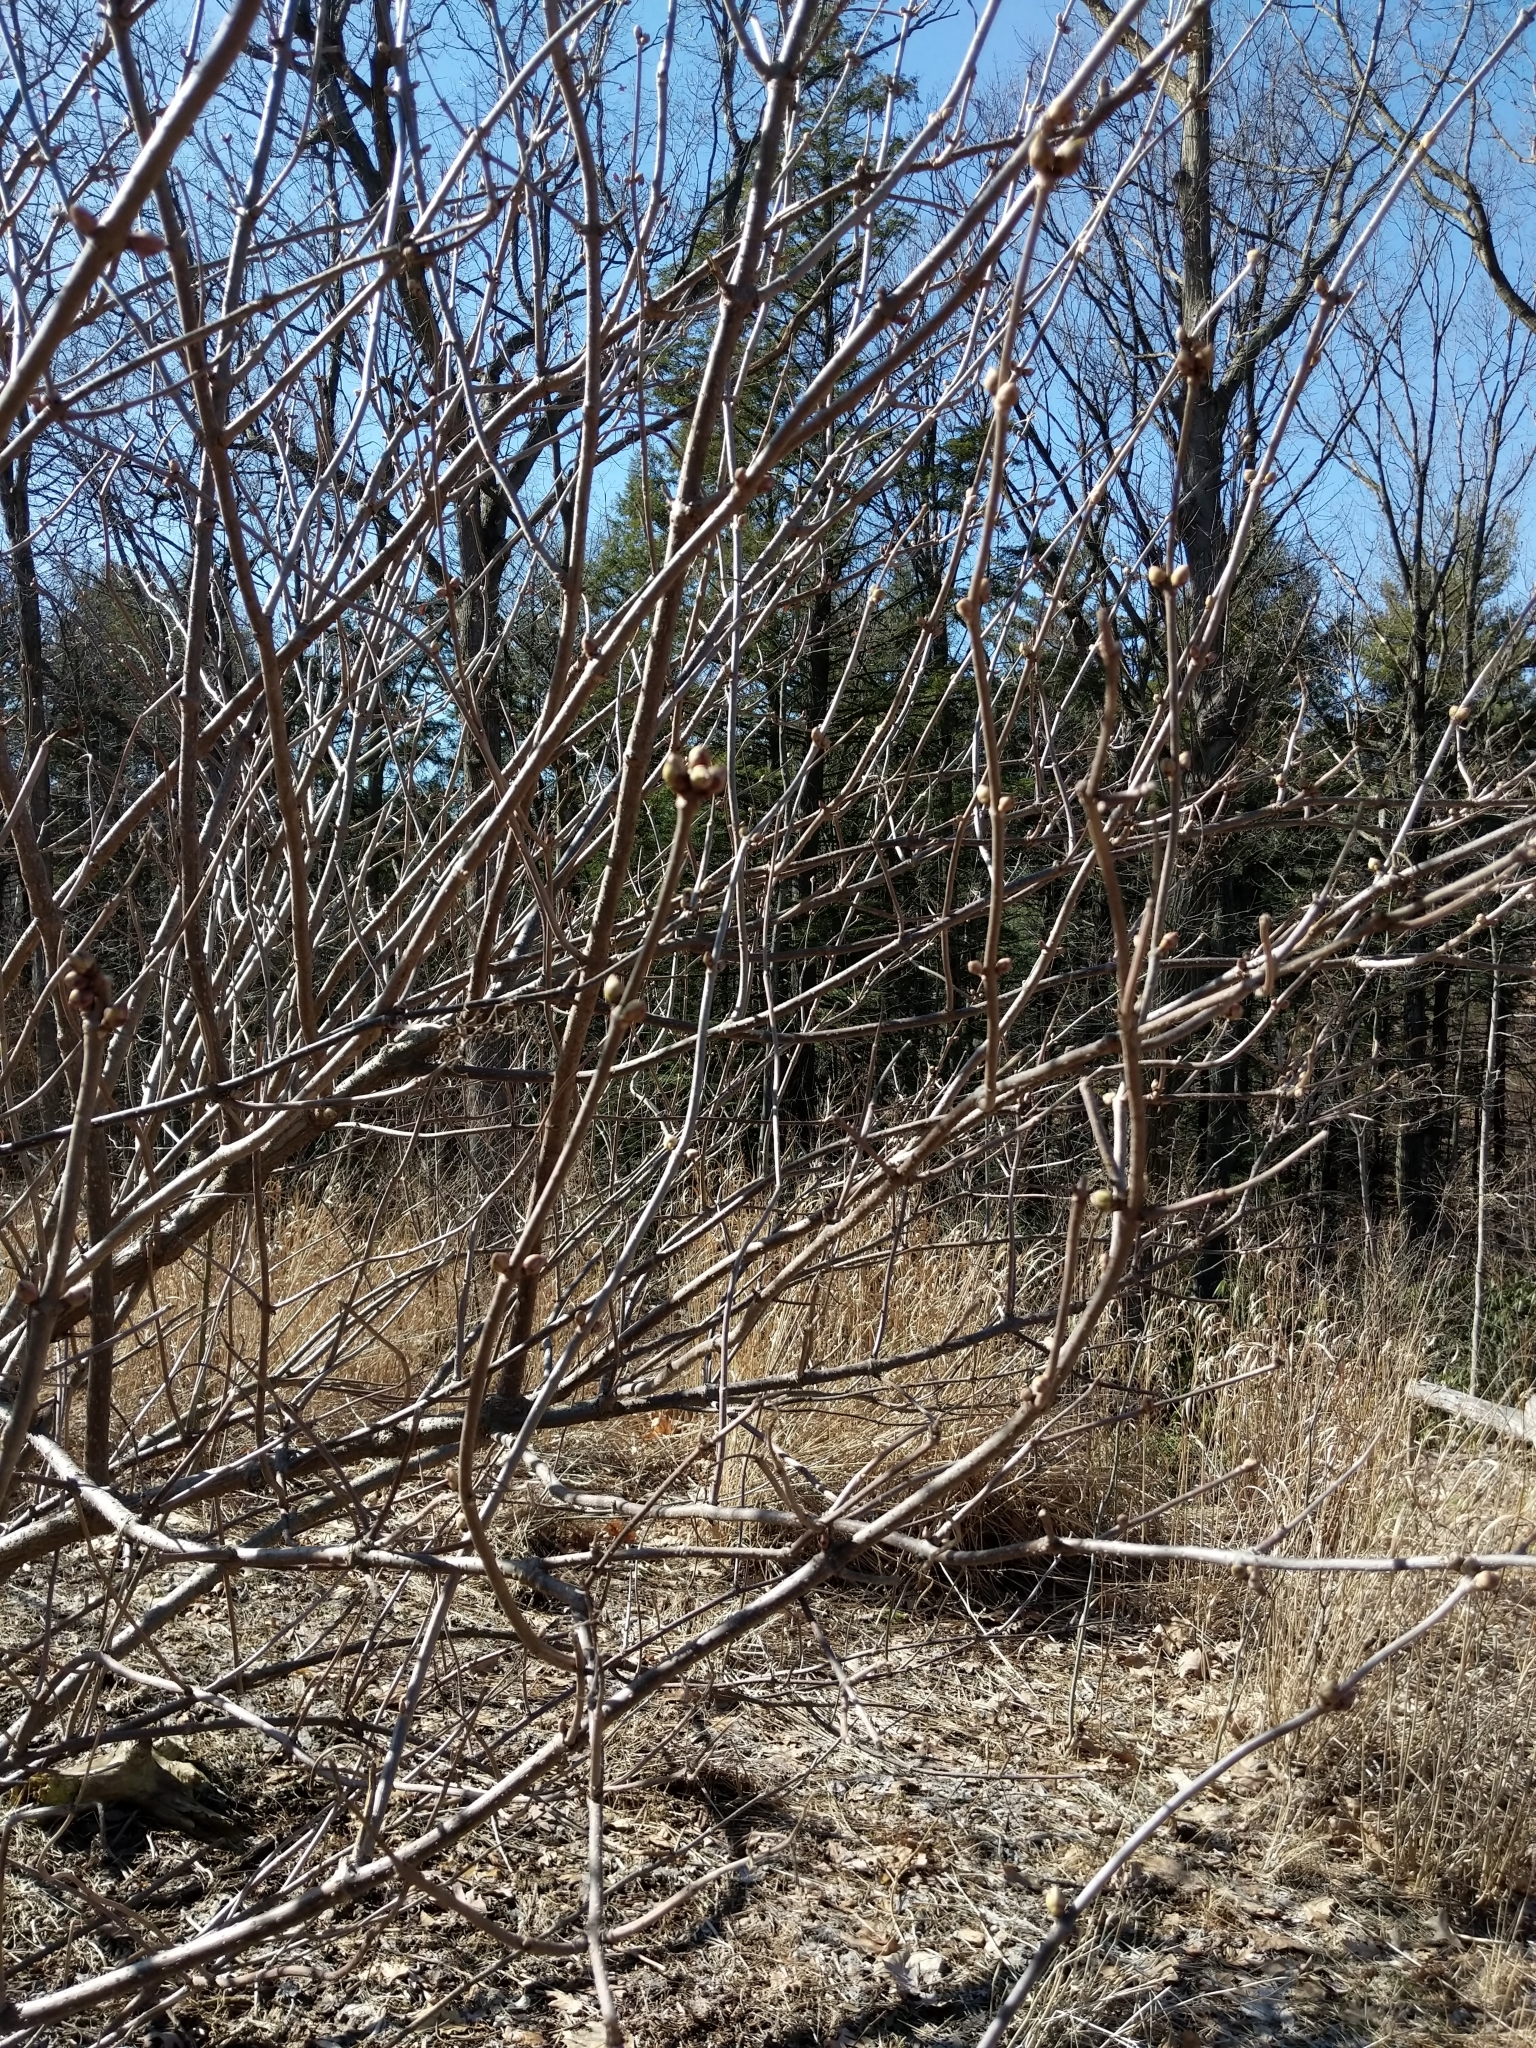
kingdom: Plantae
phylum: Tracheophyta
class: Magnoliopsida
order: Dipsacales
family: Viburnaceae
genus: Sambucus
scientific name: Sambucus racemosa
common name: Red-berried elder
